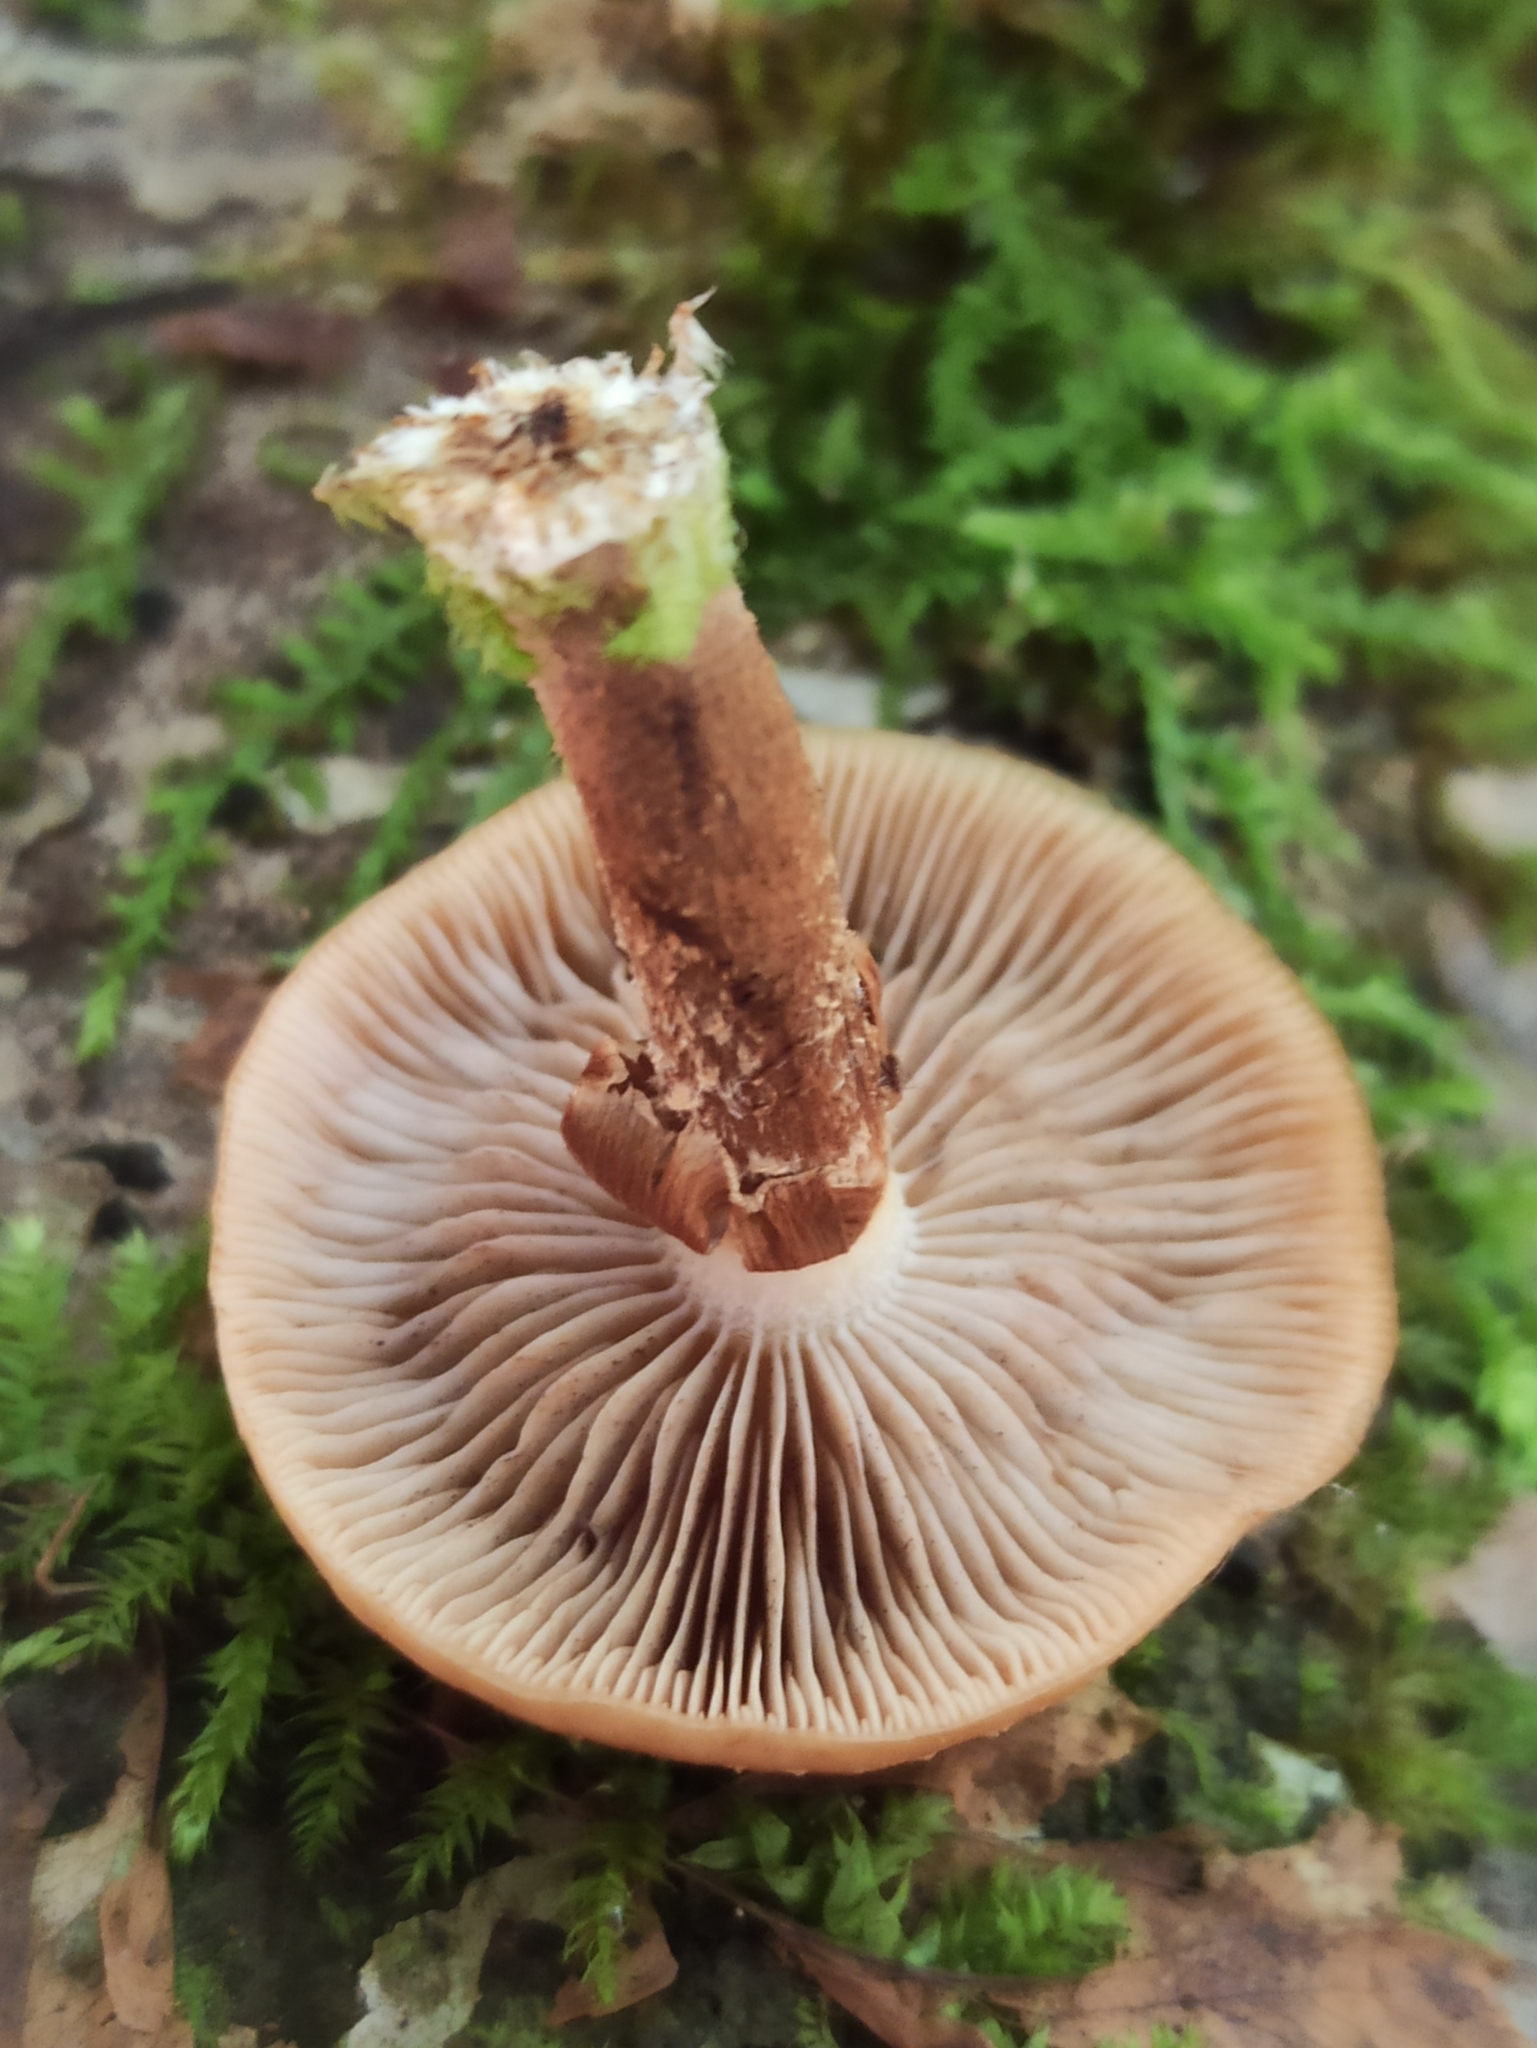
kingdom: Fungi
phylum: Basidiomycota
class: Agaricomycetes
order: Agaricales
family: Strophariaceae
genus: Kuehneromyces
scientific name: Kuehneromyces mutabilis
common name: Sheathed woodtuft
